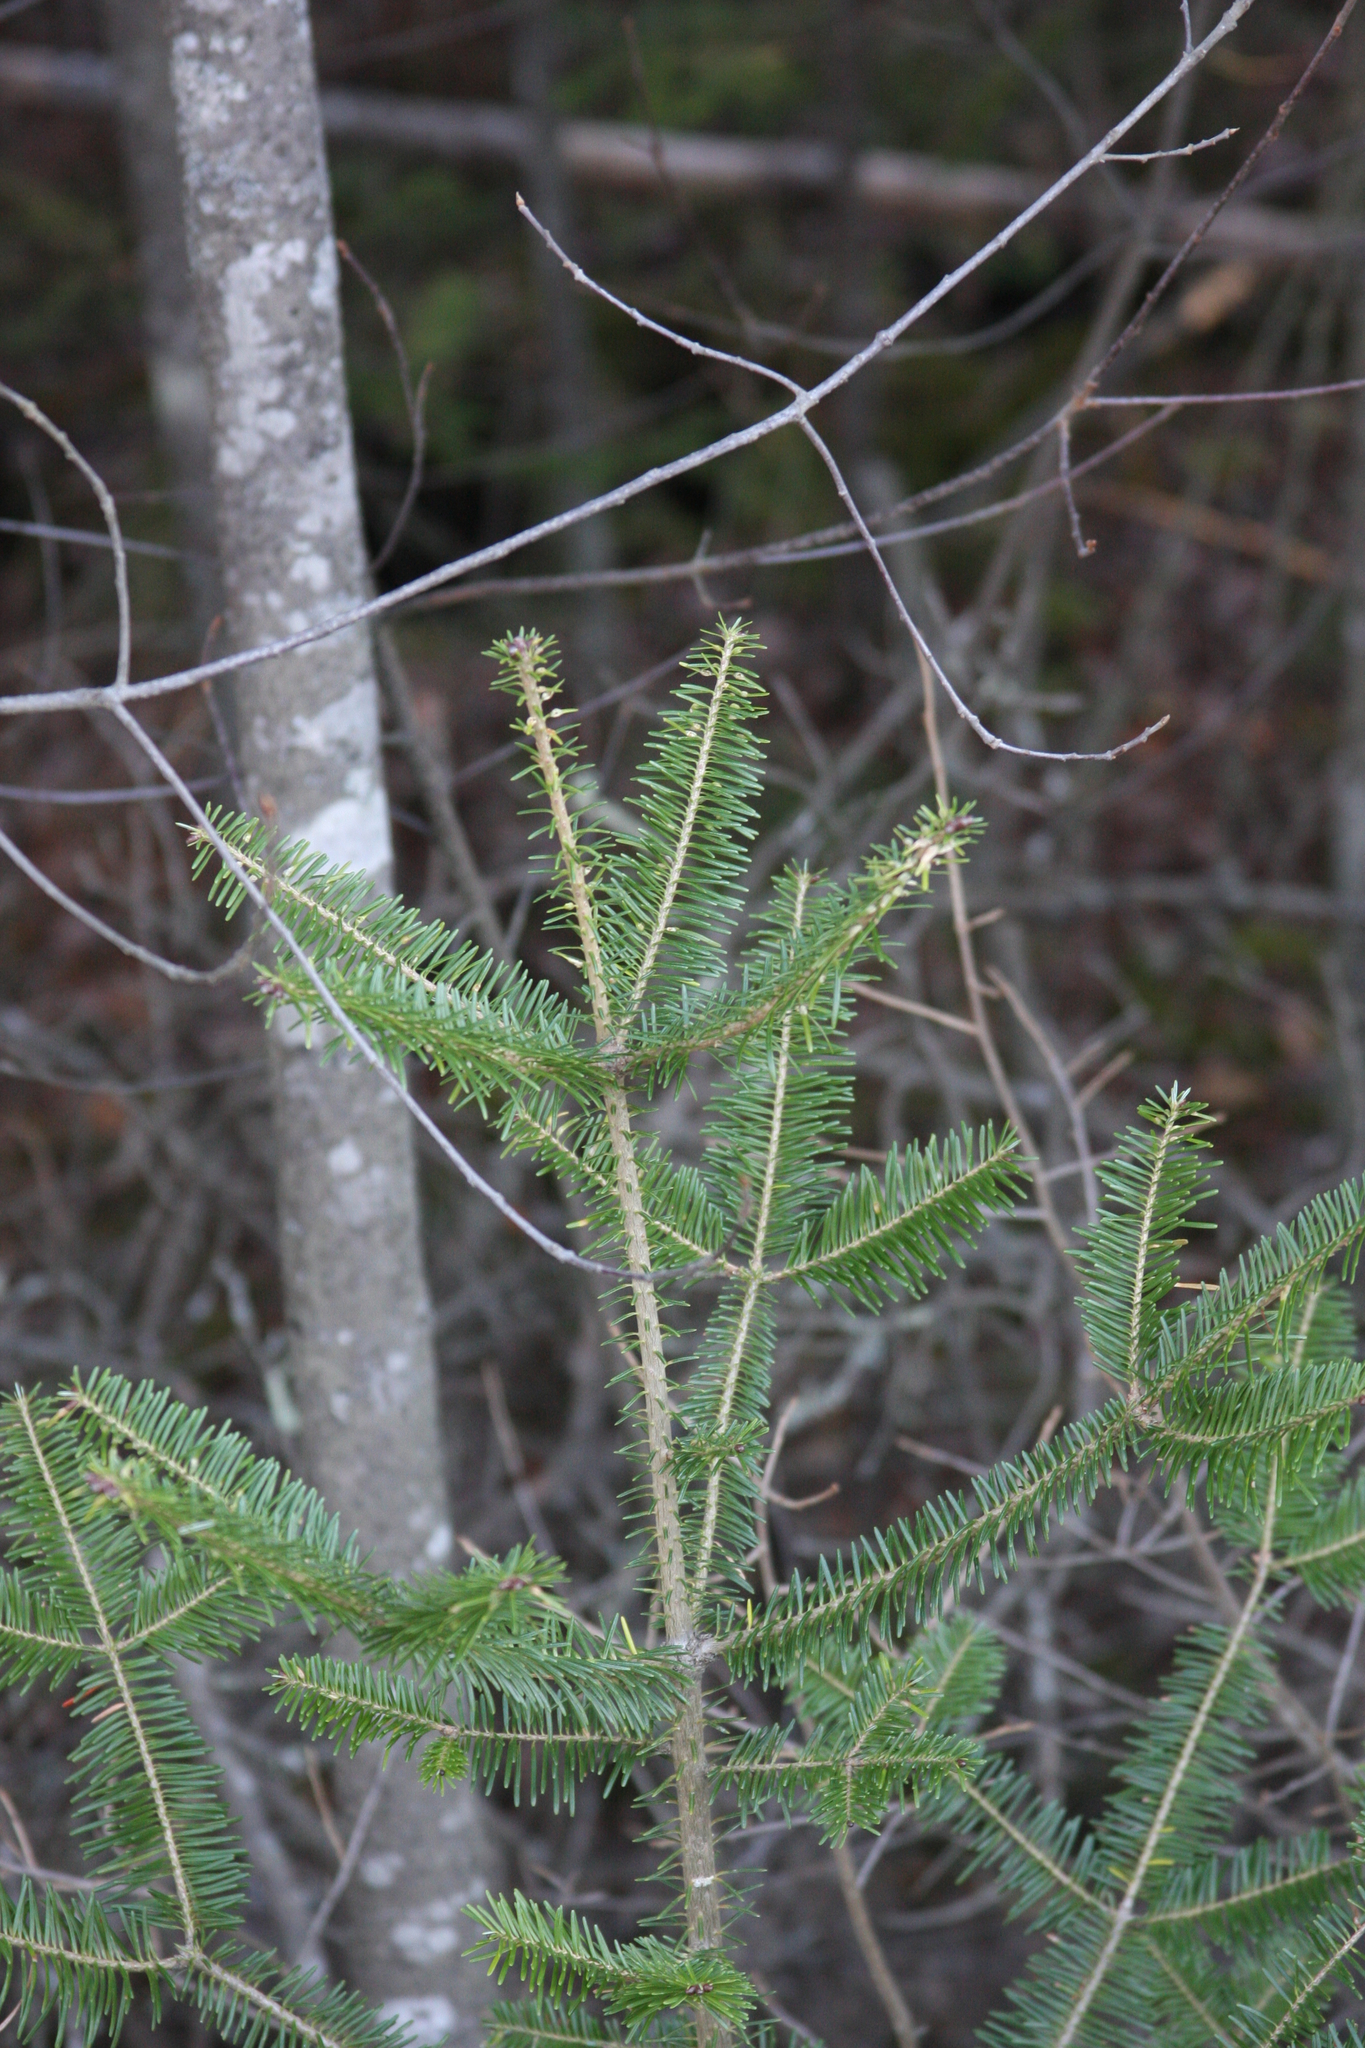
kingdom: Plantae
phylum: Tracheophyta
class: Pinopsida
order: Pinales
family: Pinaceae
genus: Abies
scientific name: Abies balsamea
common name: Balsam fir
